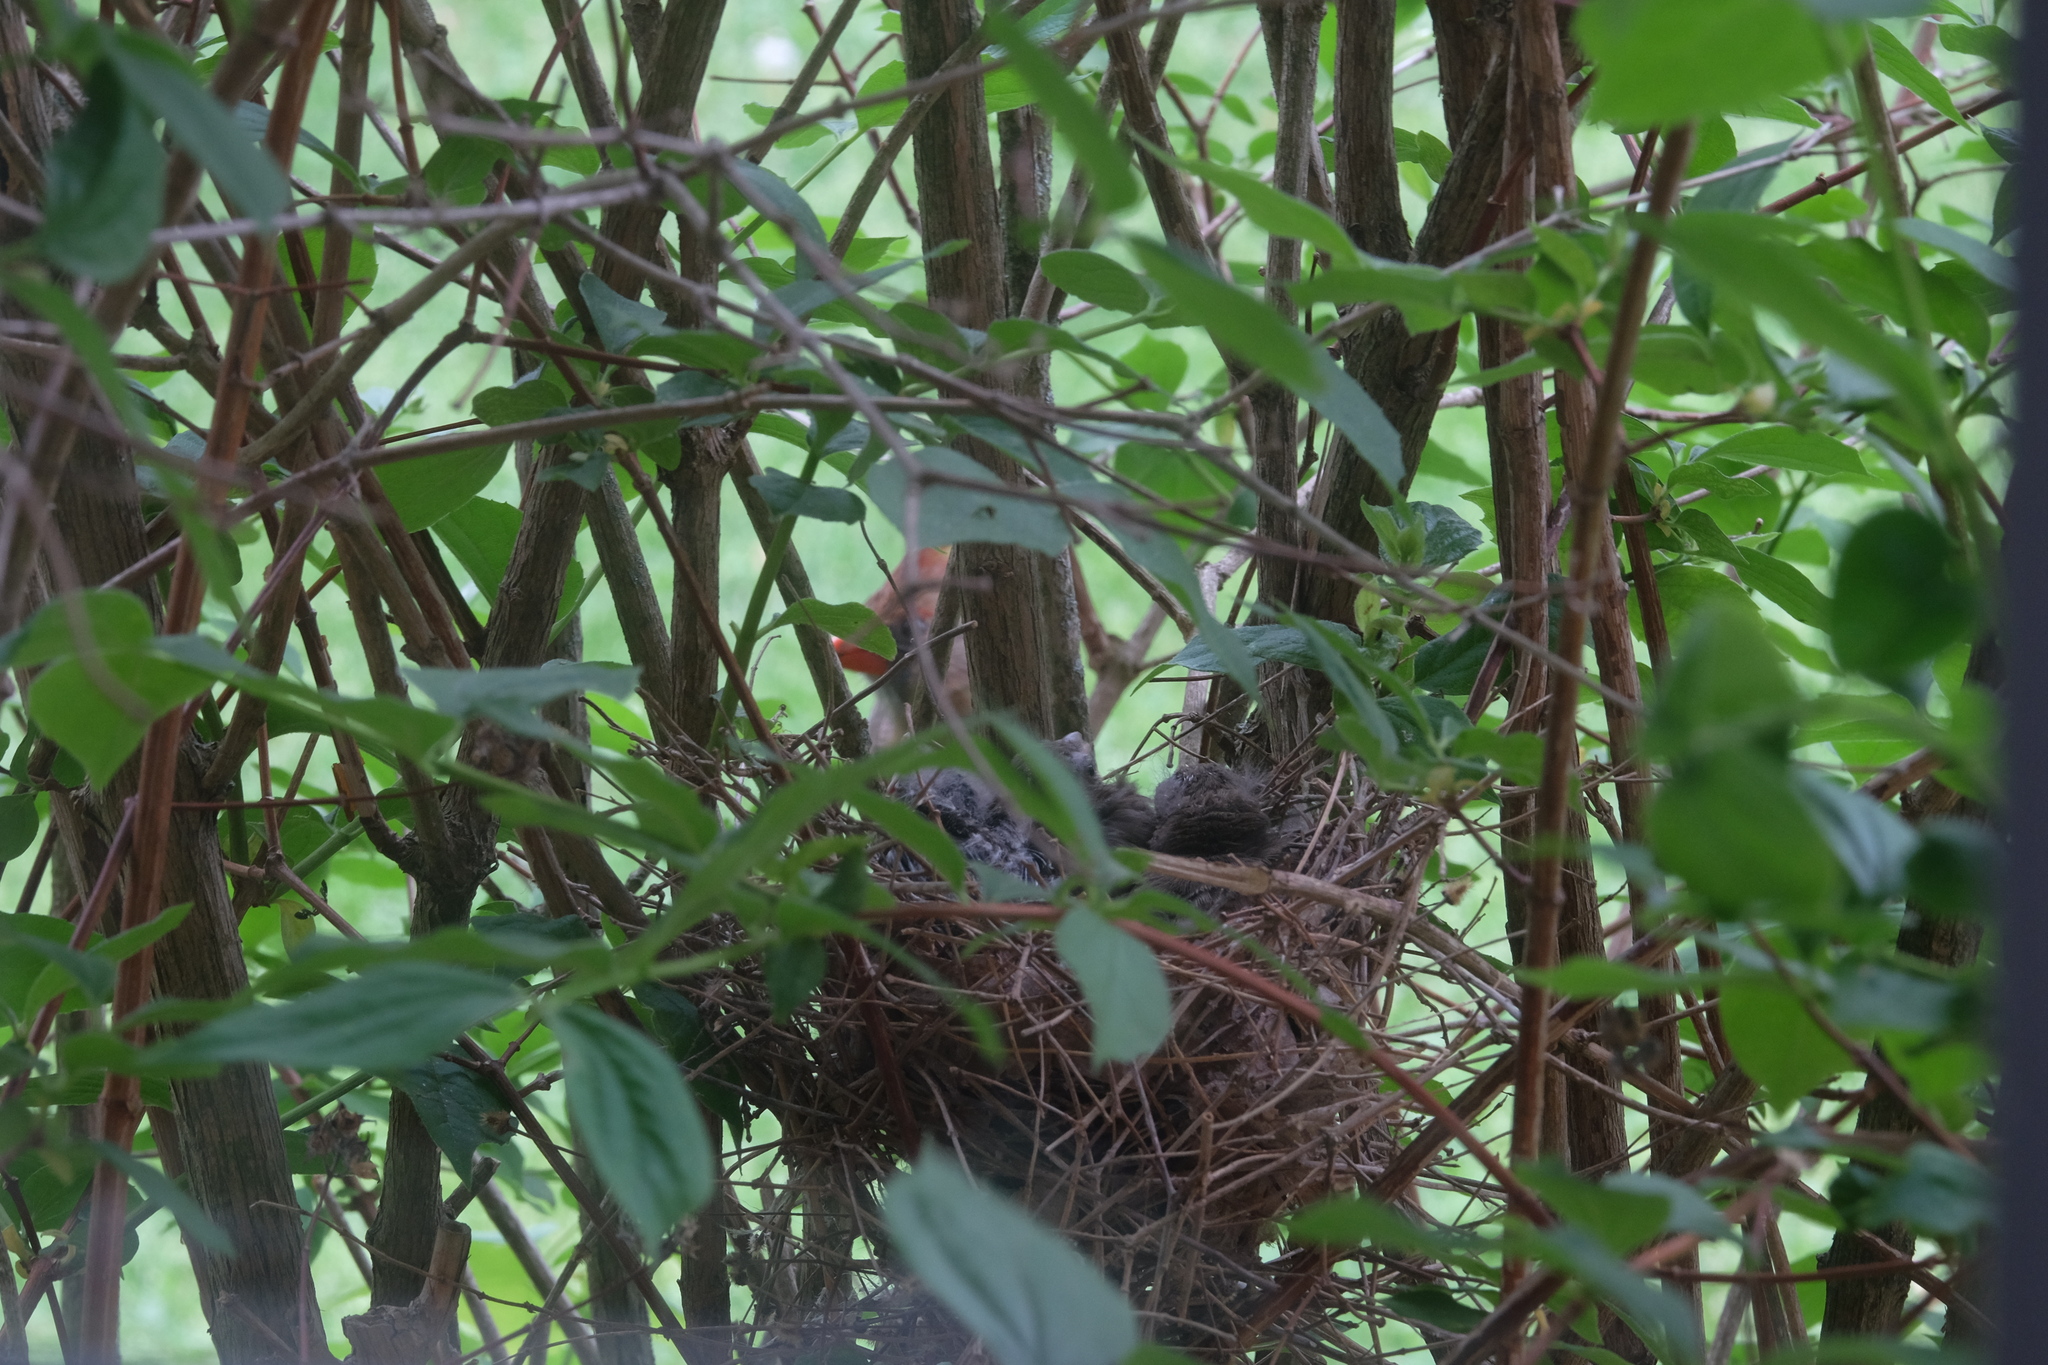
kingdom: Animalia
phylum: Chordata
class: Aves
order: Passeriformes
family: Cardinalidae
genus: Cardinalis
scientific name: Cardinalis cardinalis
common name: Northern cardinal
